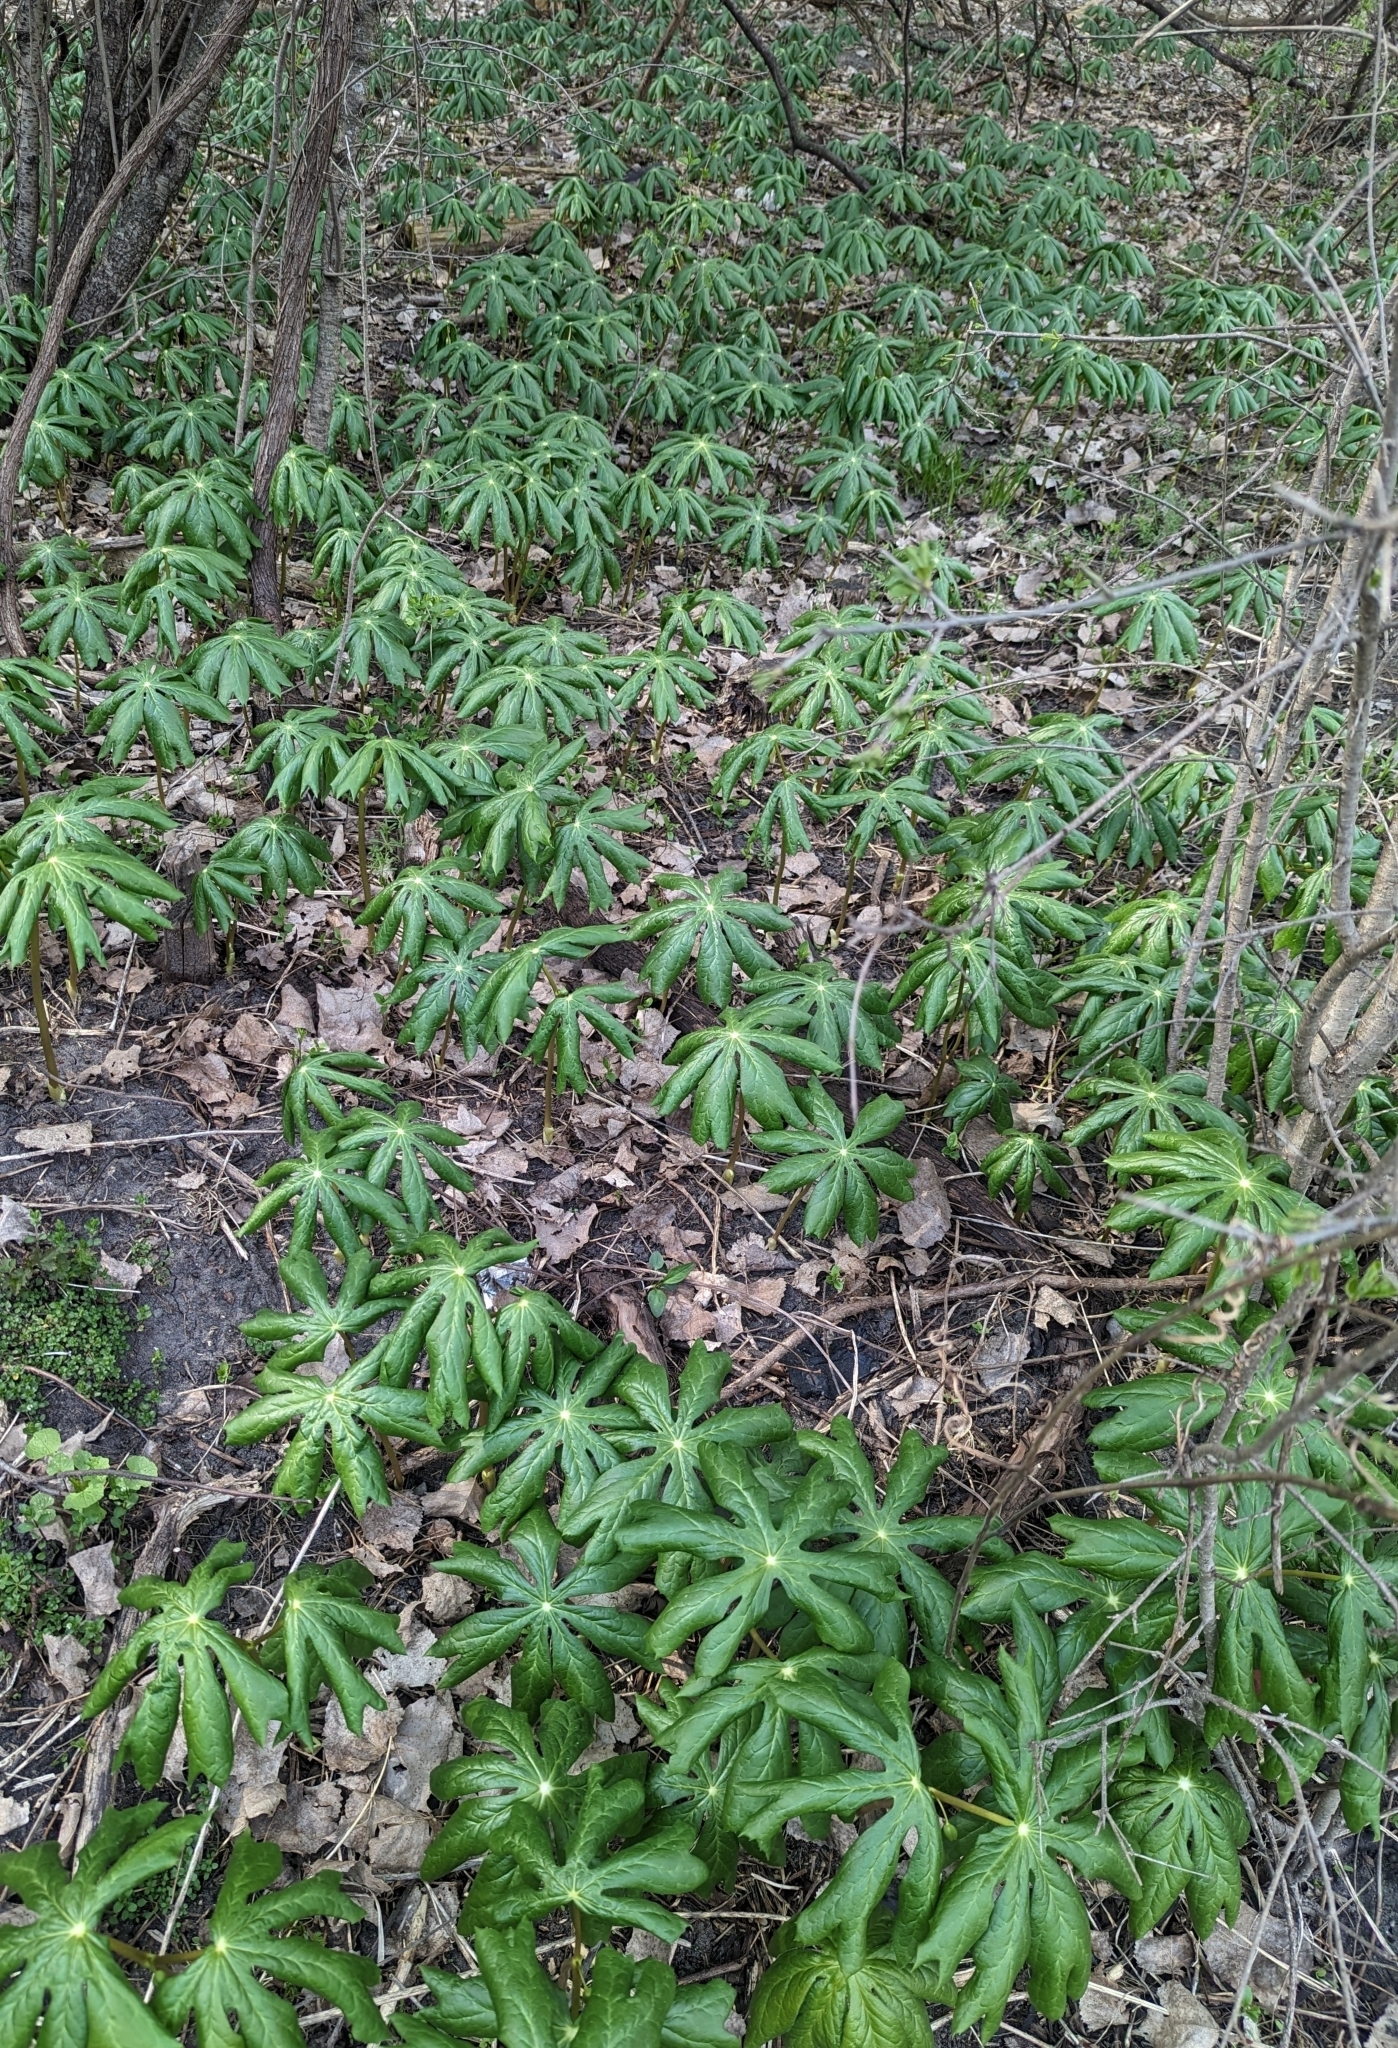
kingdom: Plantae
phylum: Tracheophyta
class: Magnoliopsida
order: Ranunculales
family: Berberidaceae
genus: Podophyllum
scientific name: Podophyllum peltatum
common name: Wild mandrake
